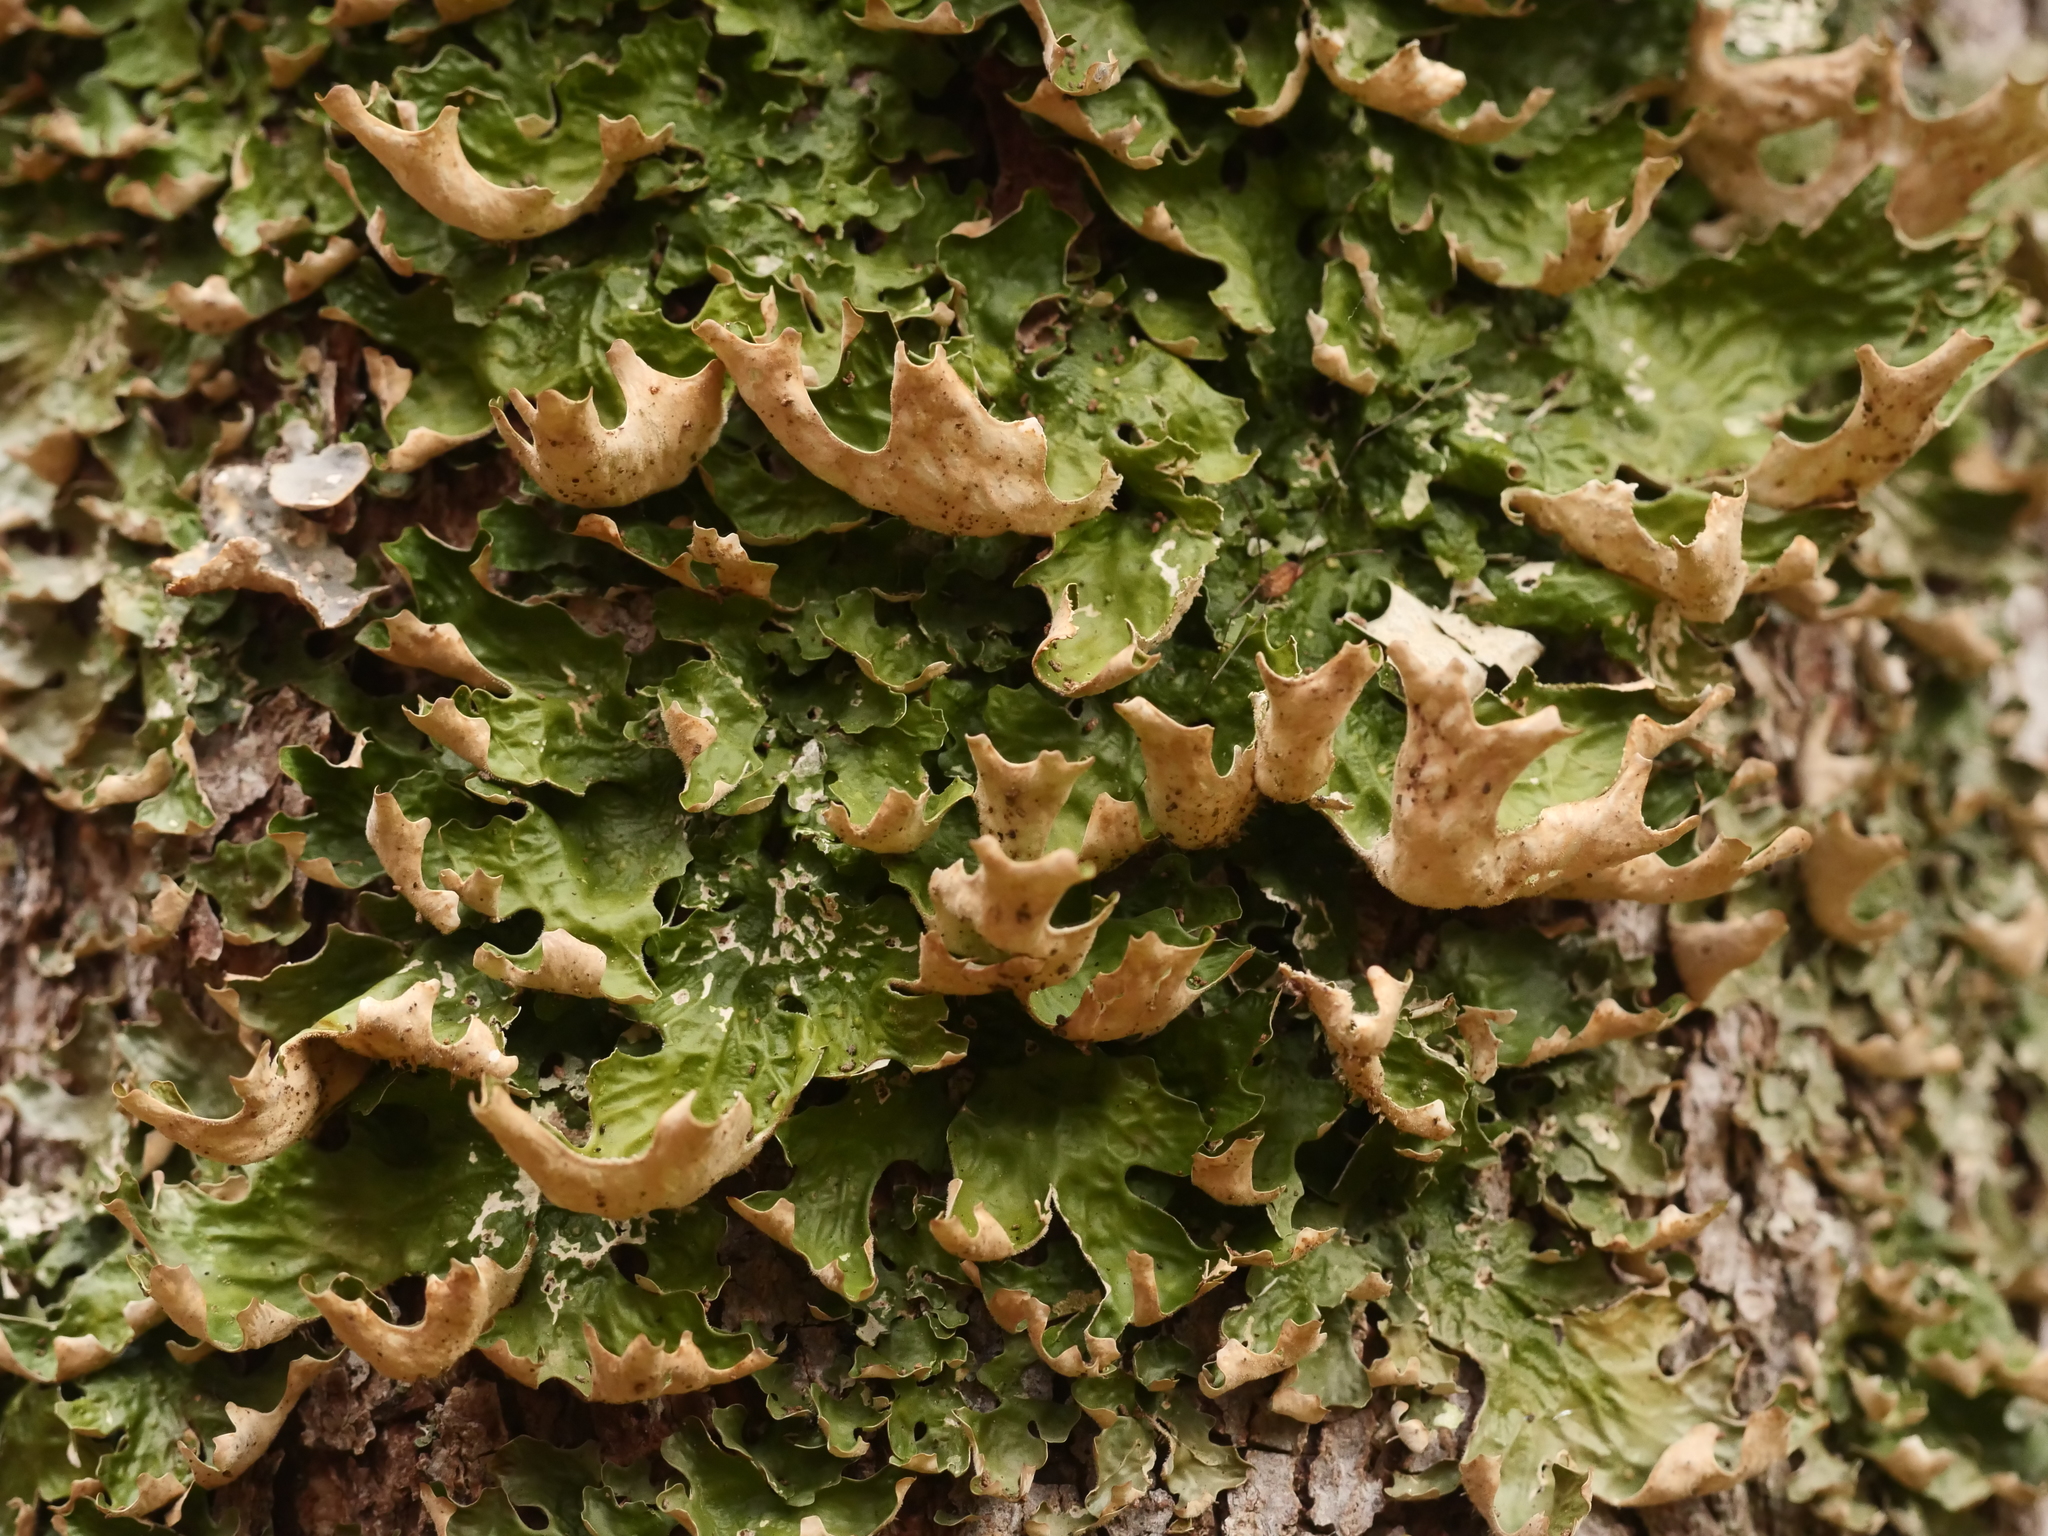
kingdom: Fungi
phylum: Ascomycota
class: Lecanoromycetes
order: Peltigerales
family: Lobariaceae
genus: Lobaria
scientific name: Lobaria pulmonaria
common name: Lungwort
